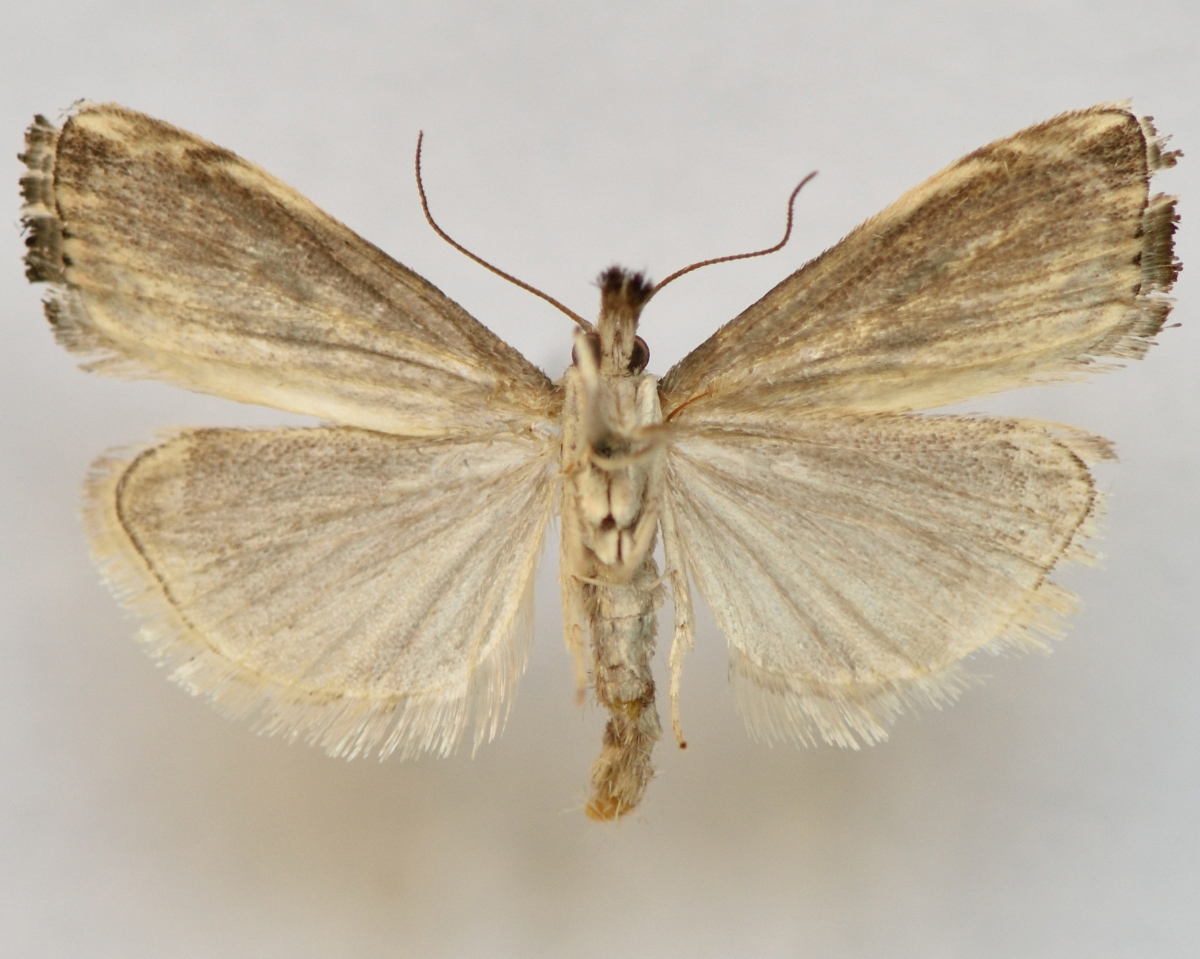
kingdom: Animalia
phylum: Arthropoda
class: Insecta
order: Lepidoptera
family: Crambidae
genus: Catoptria
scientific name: Catoptria verellus
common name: Marbled grass-veneer
